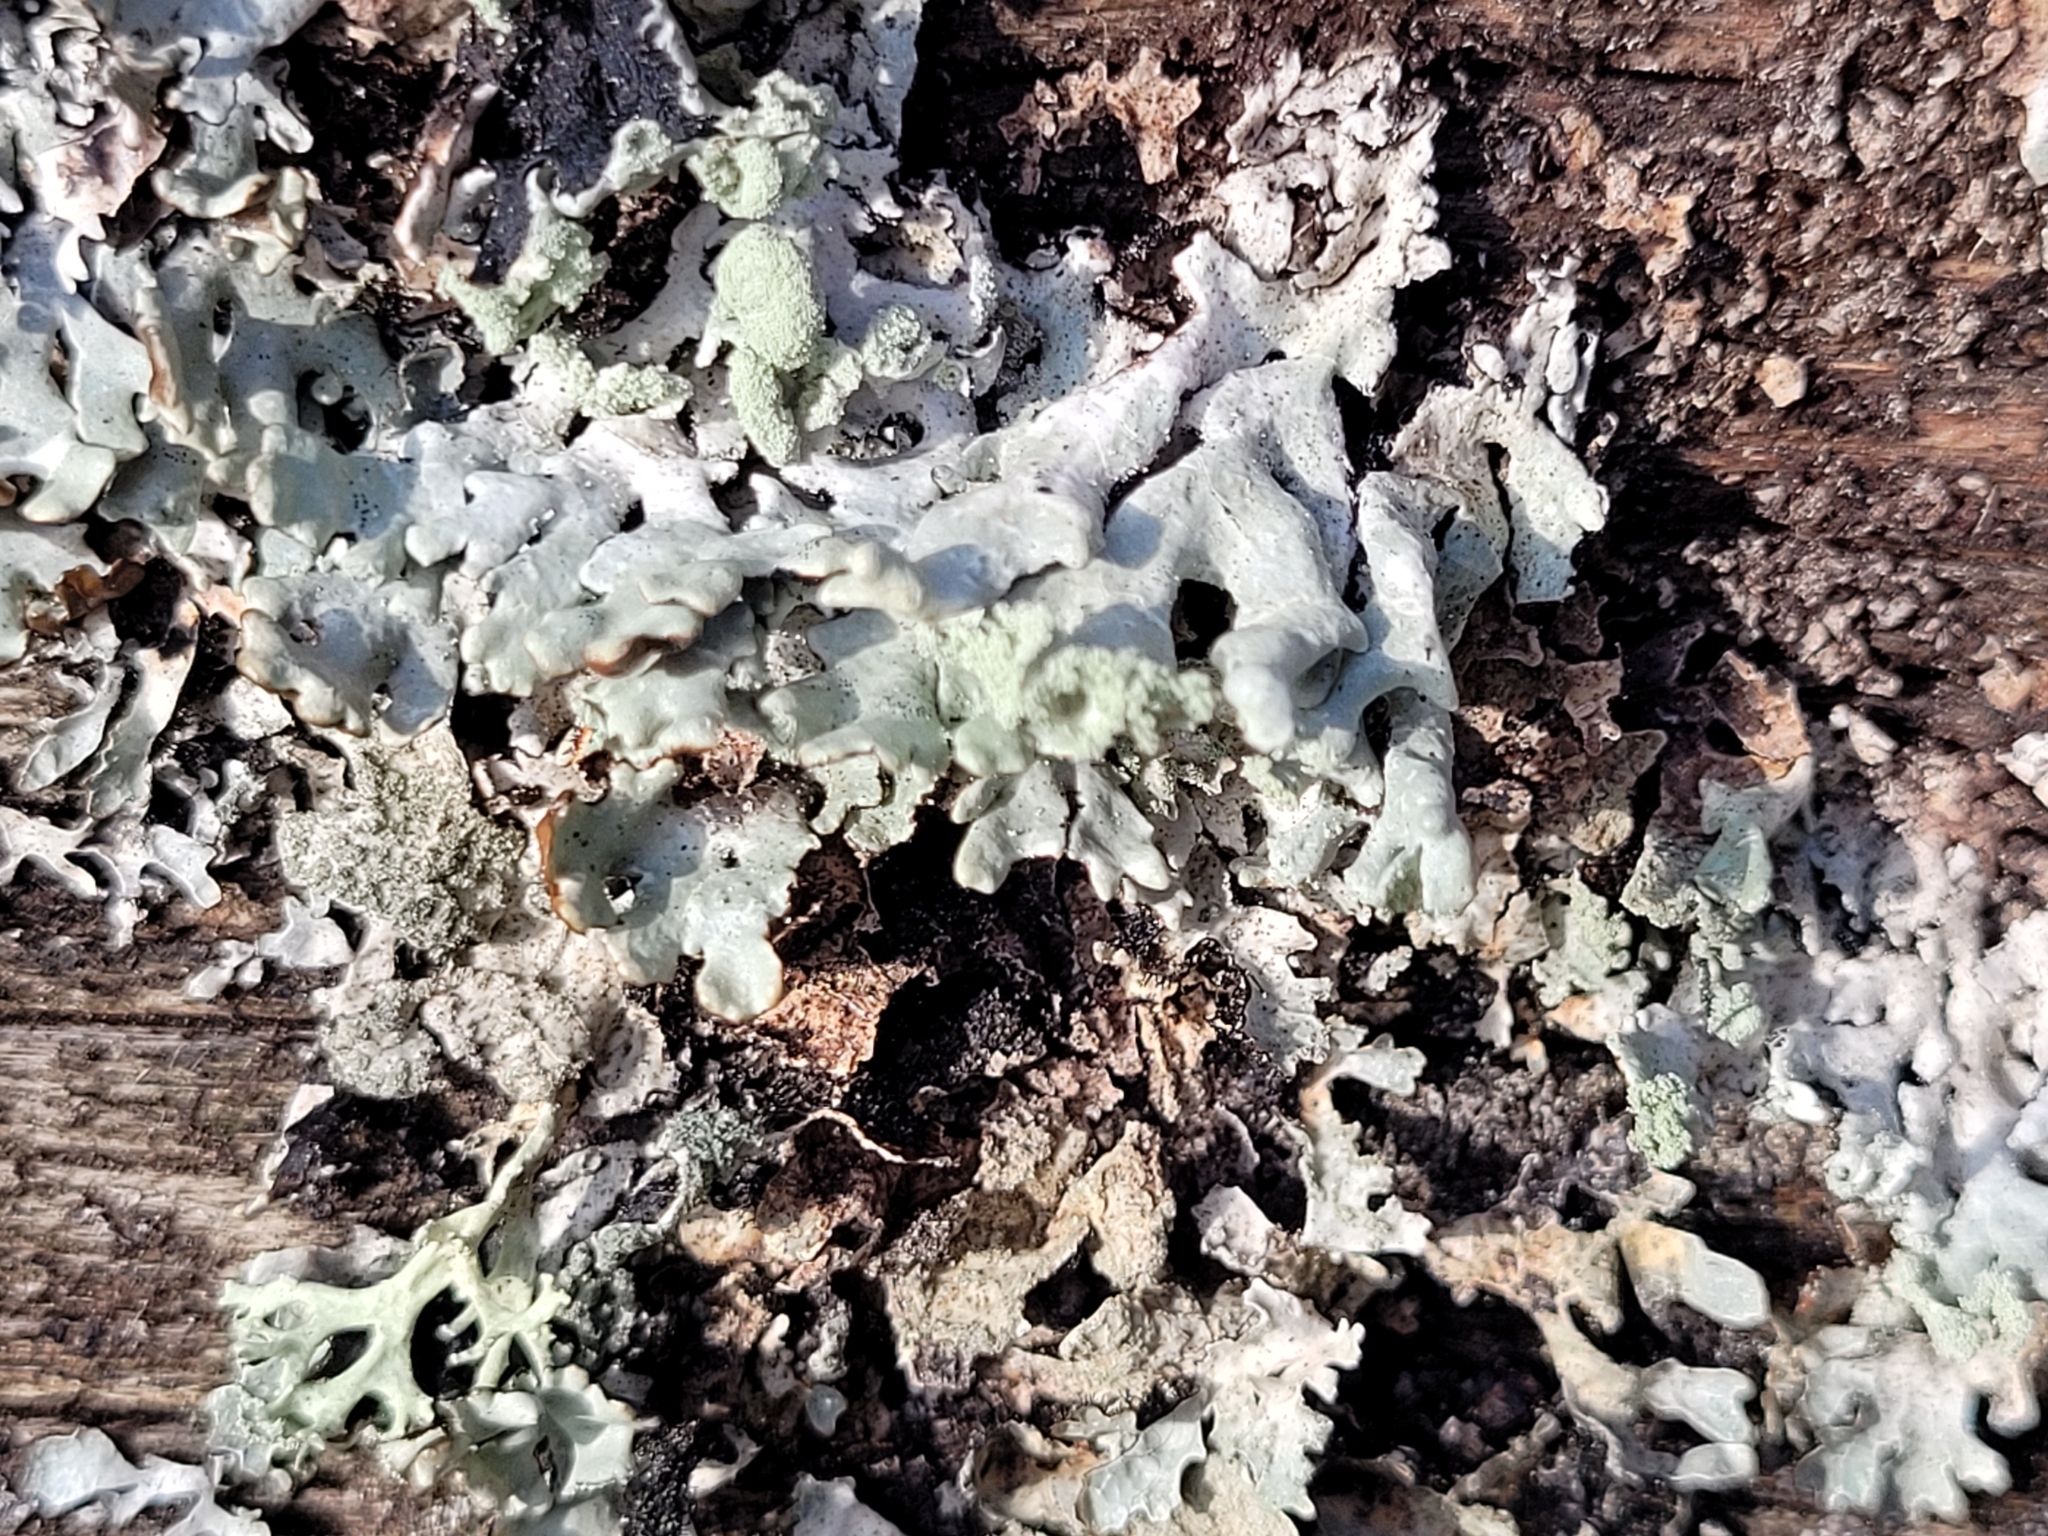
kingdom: Fungi
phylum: Ascomycota
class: Lecanoromycetes
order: Lecanorales
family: Parmeliaceae
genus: Hypogymnia
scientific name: Hypogymnia physodes
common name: Dark crottle
